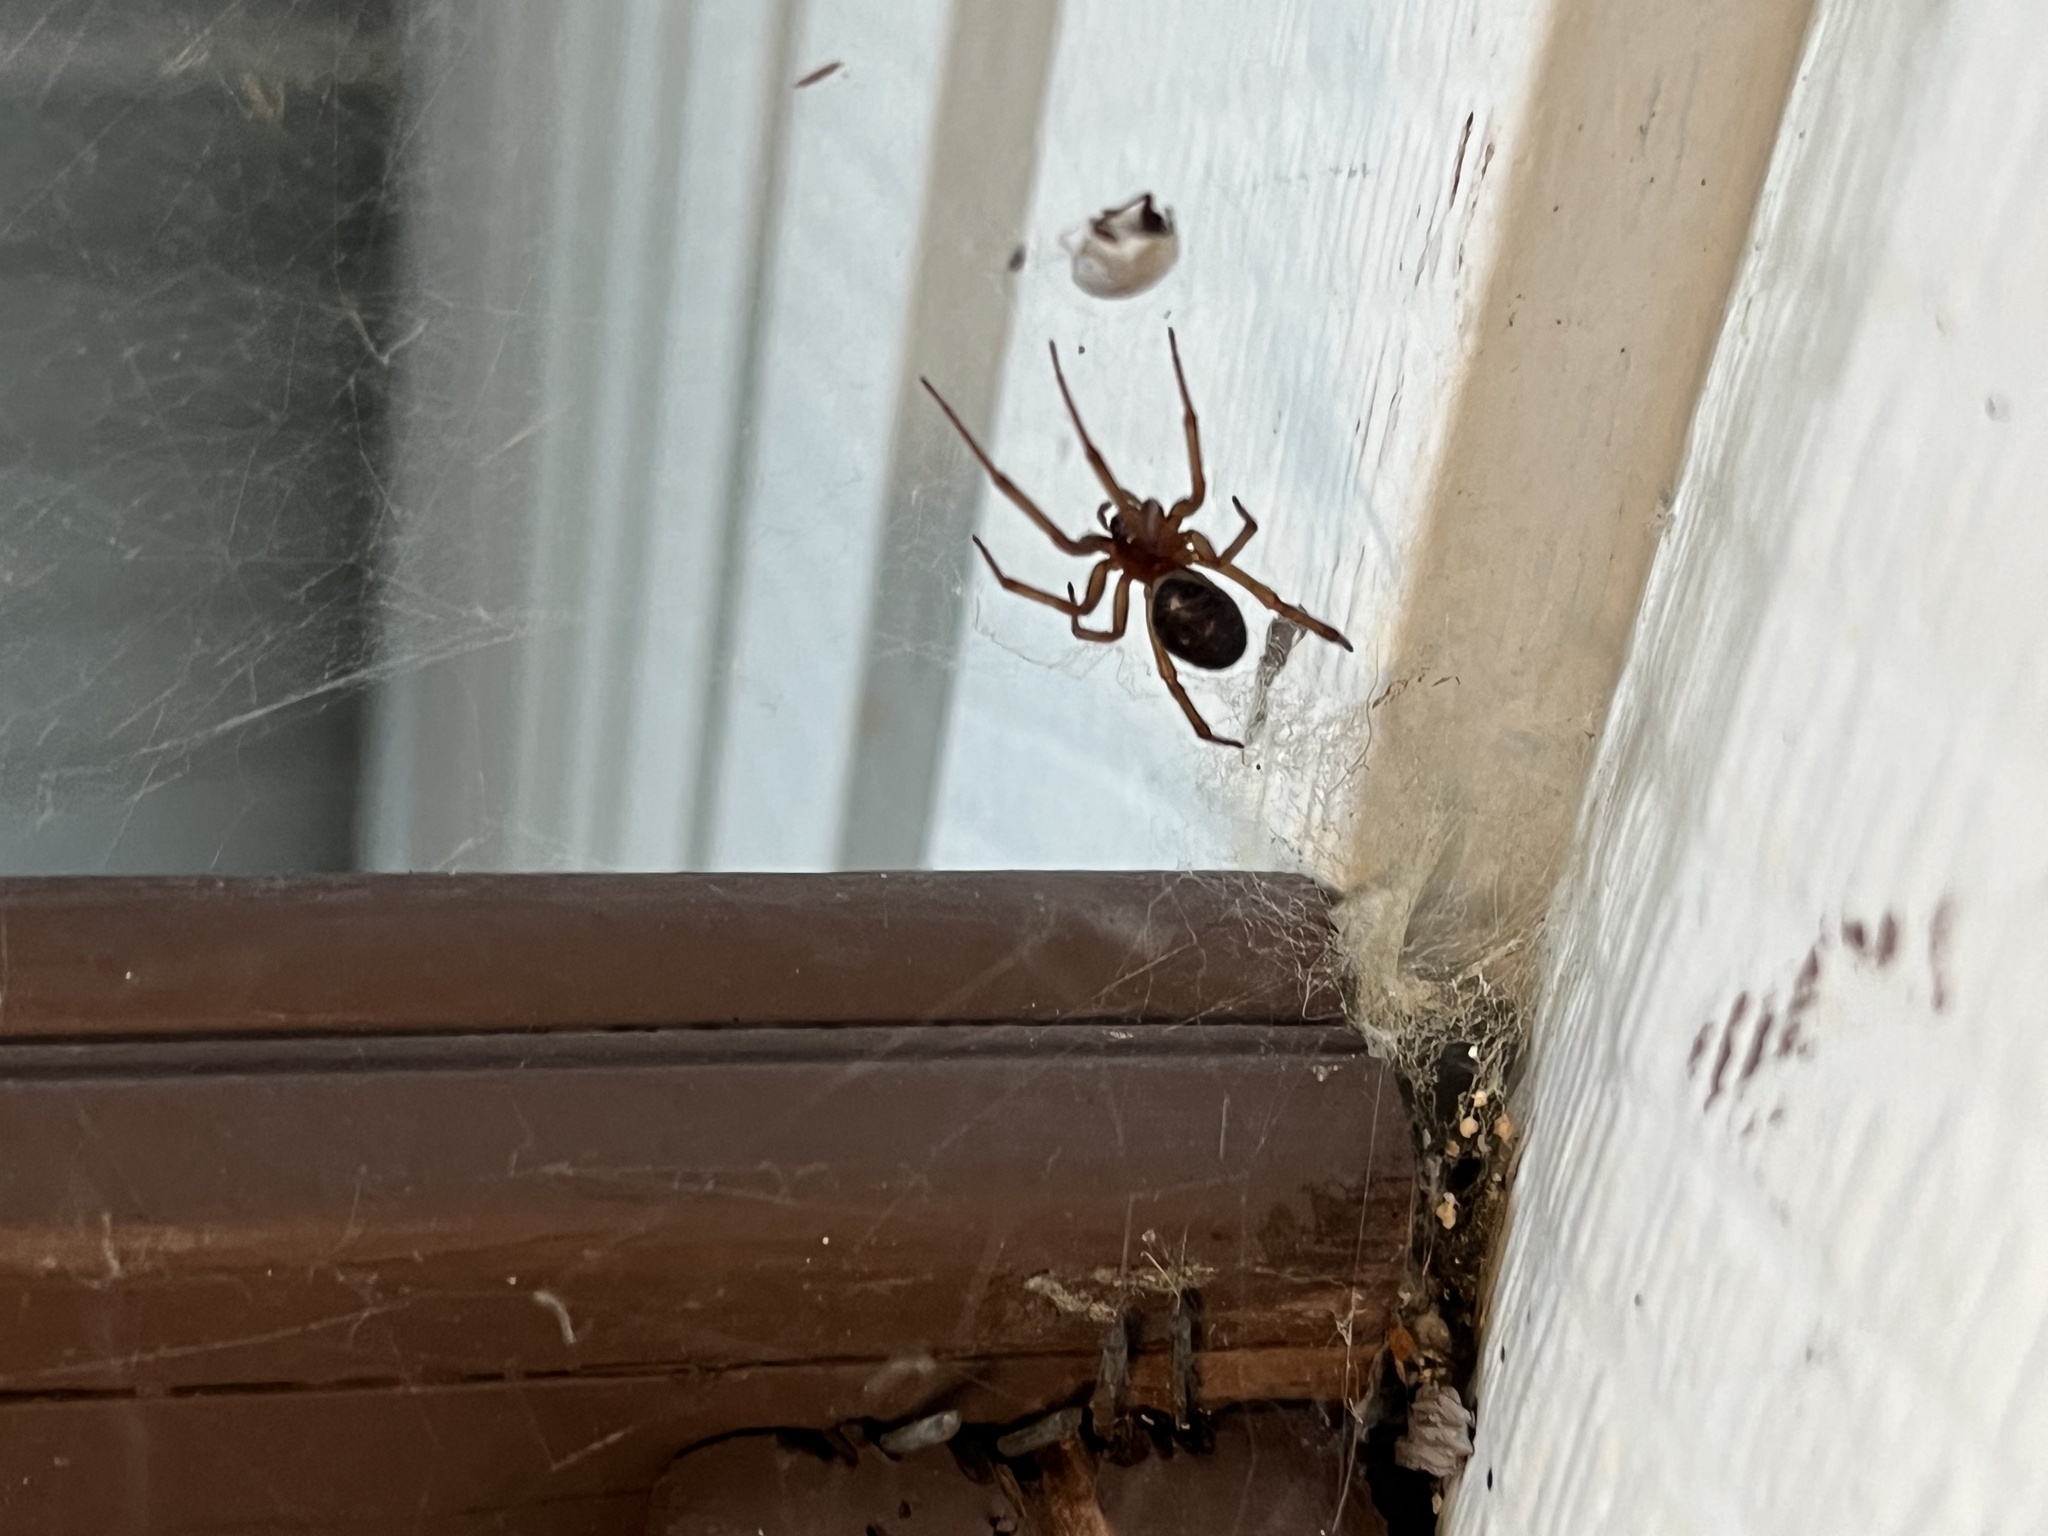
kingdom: Animalia
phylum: Arthropoda
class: Arachnida
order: Araneae
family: Theridiidae
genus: Steatoda
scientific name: Steatoda grossa
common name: False black widow
